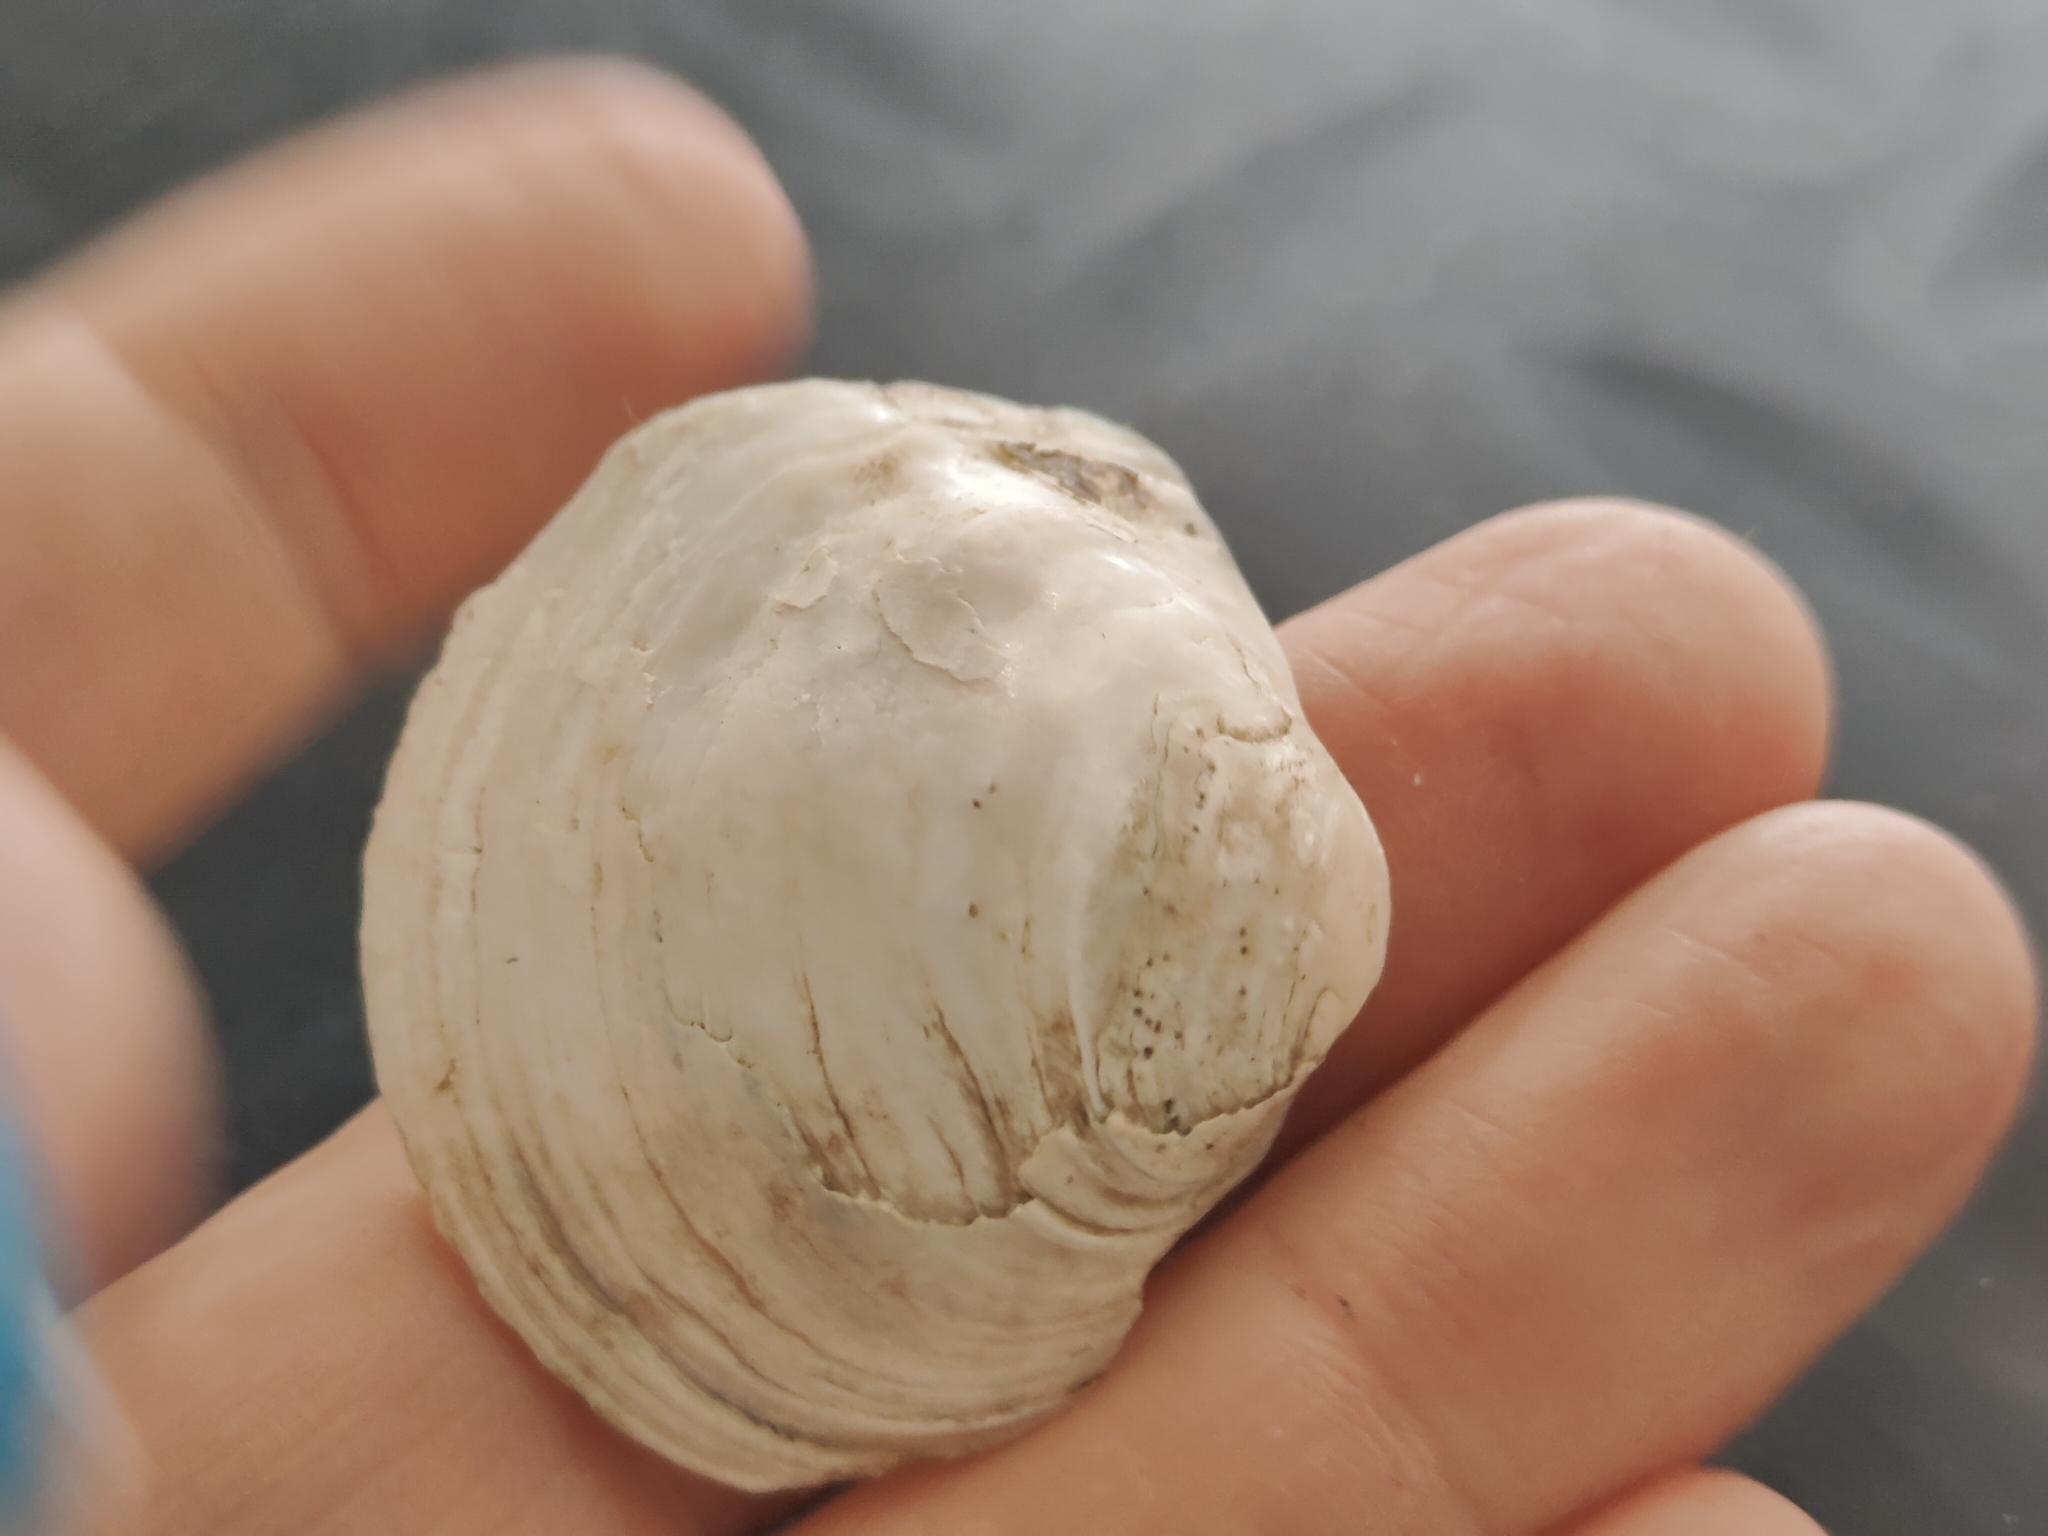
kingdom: Animalia
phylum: Mollusca
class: Bivalvia
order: Unionida
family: Unionidae
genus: Cyclonaias
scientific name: Cyclonaias pustulosa
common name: Pimpleback
